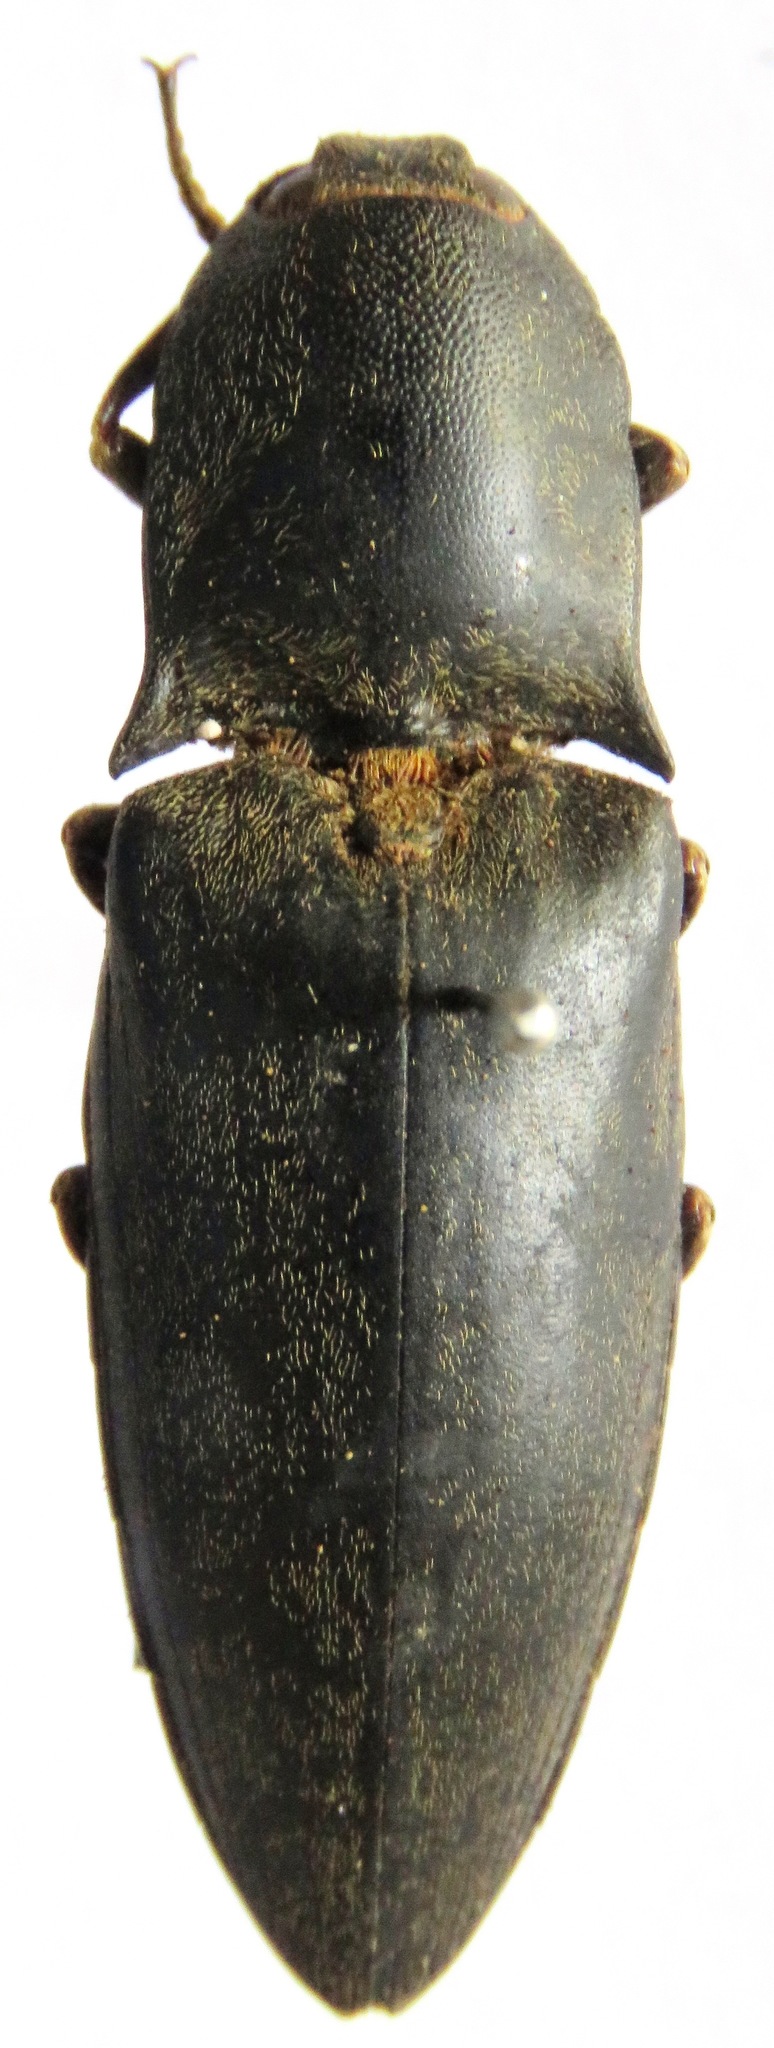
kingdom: Animalia
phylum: Arthropoda
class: Insecta
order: Coleoptera
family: Elateridae
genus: Lanelater
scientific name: Lanelater politus
